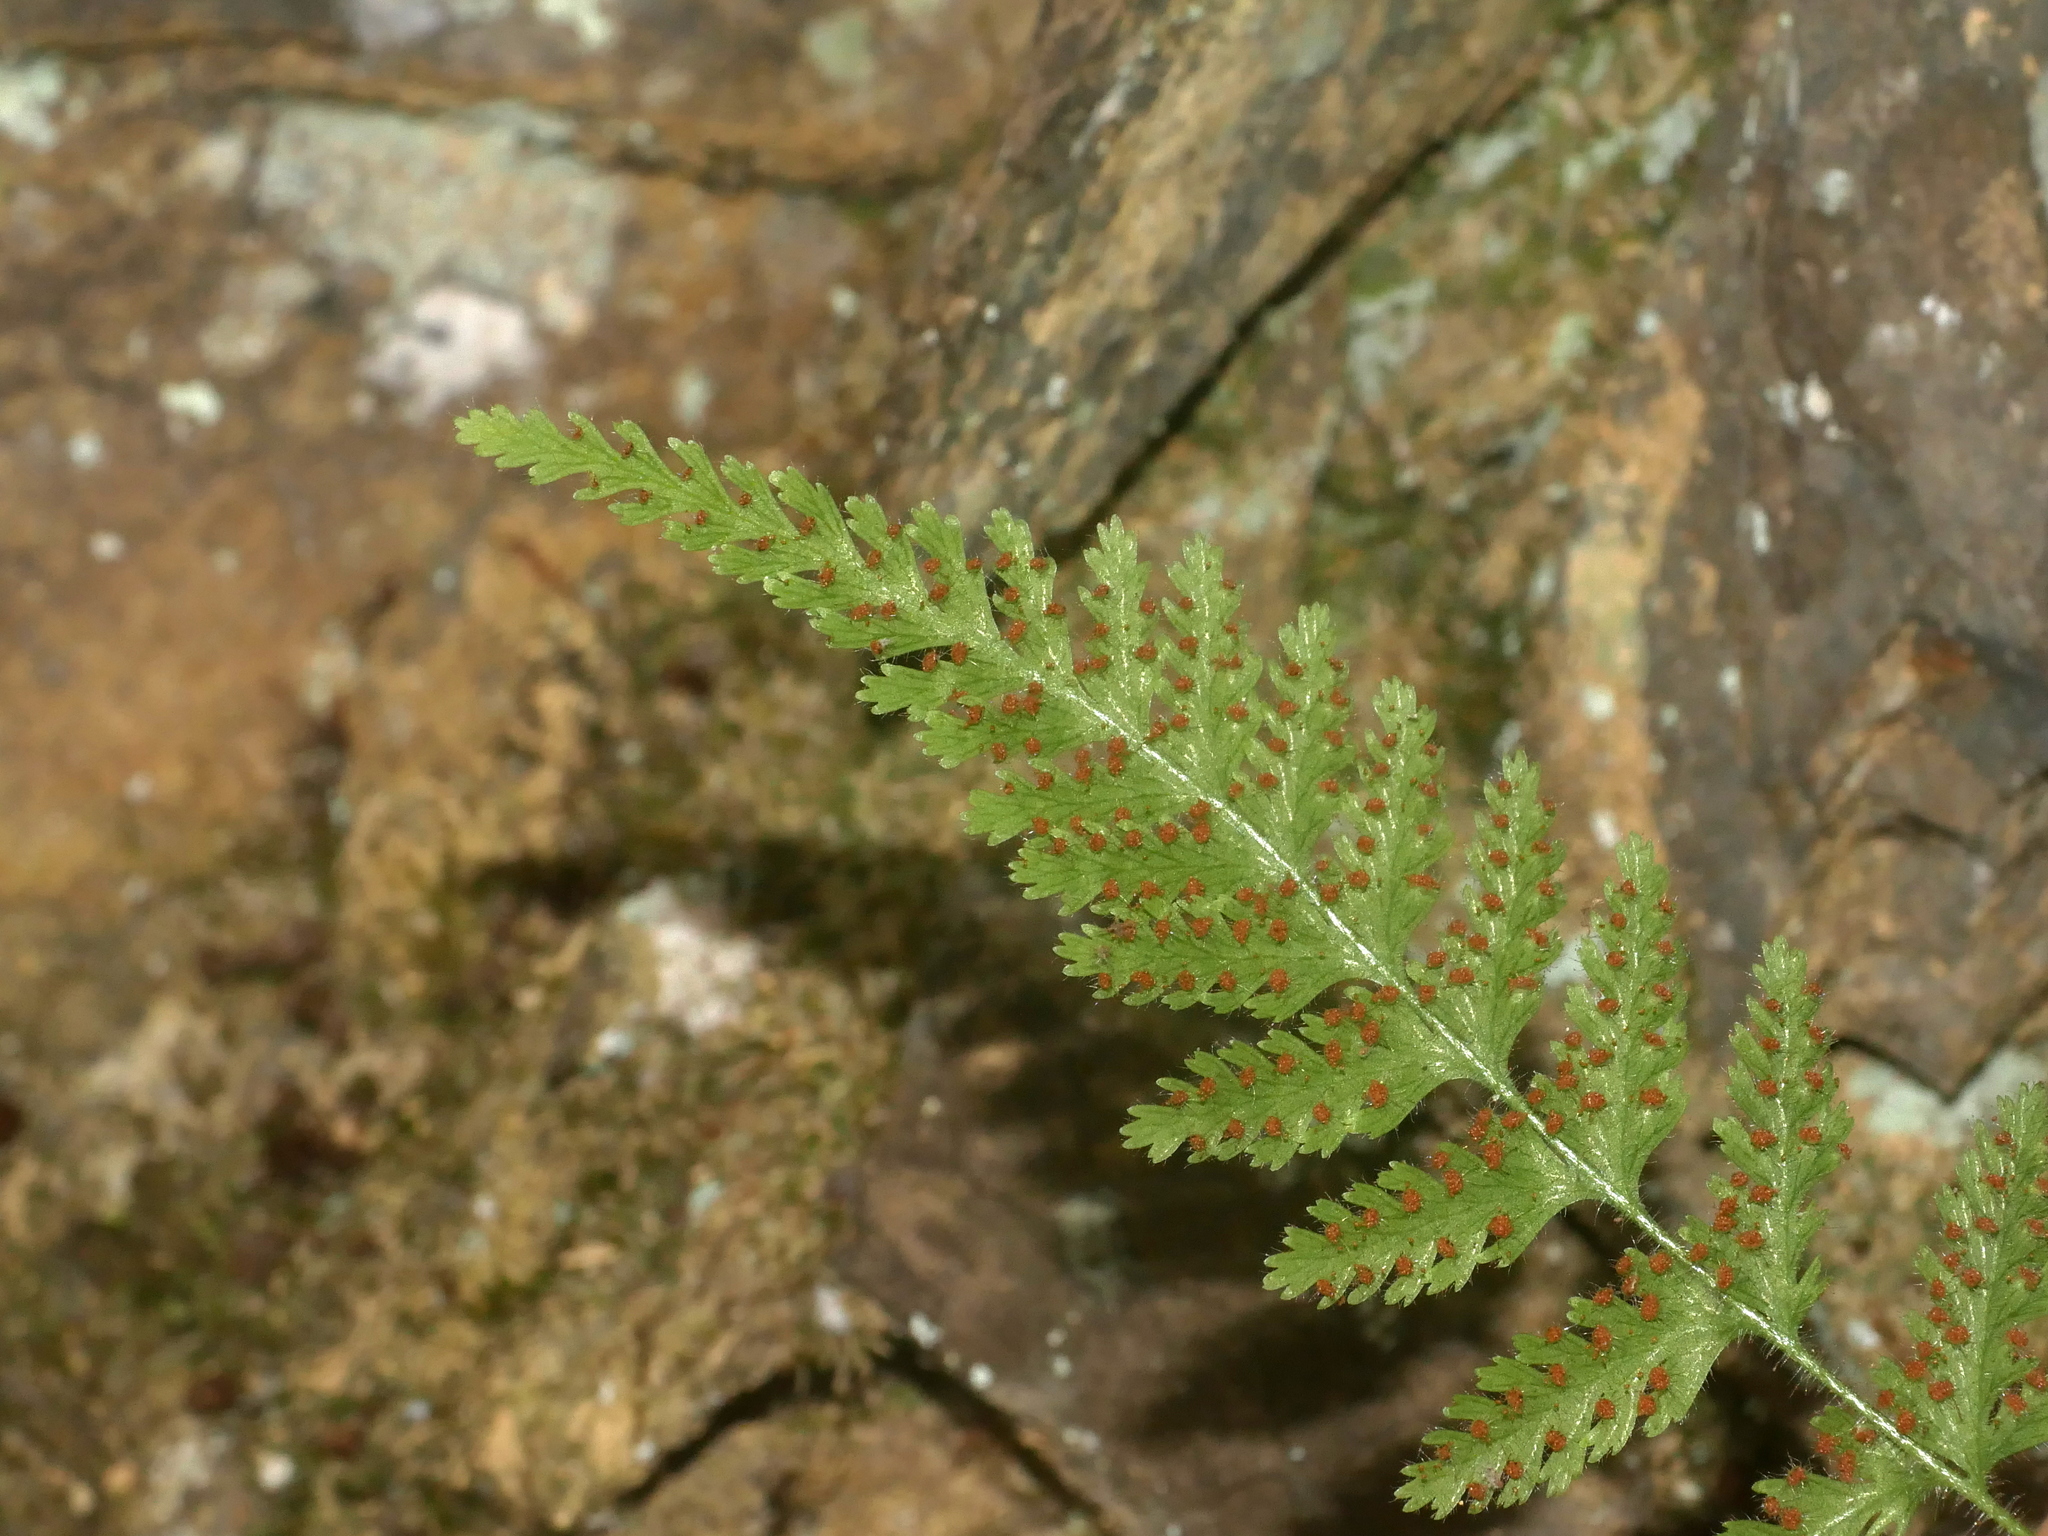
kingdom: Plantae
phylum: Tracheophyta
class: Polypodiopsida
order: Polypodiales
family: Dennstaedtiaceae
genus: Sitobolium
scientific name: Sitobolium hirsutum
